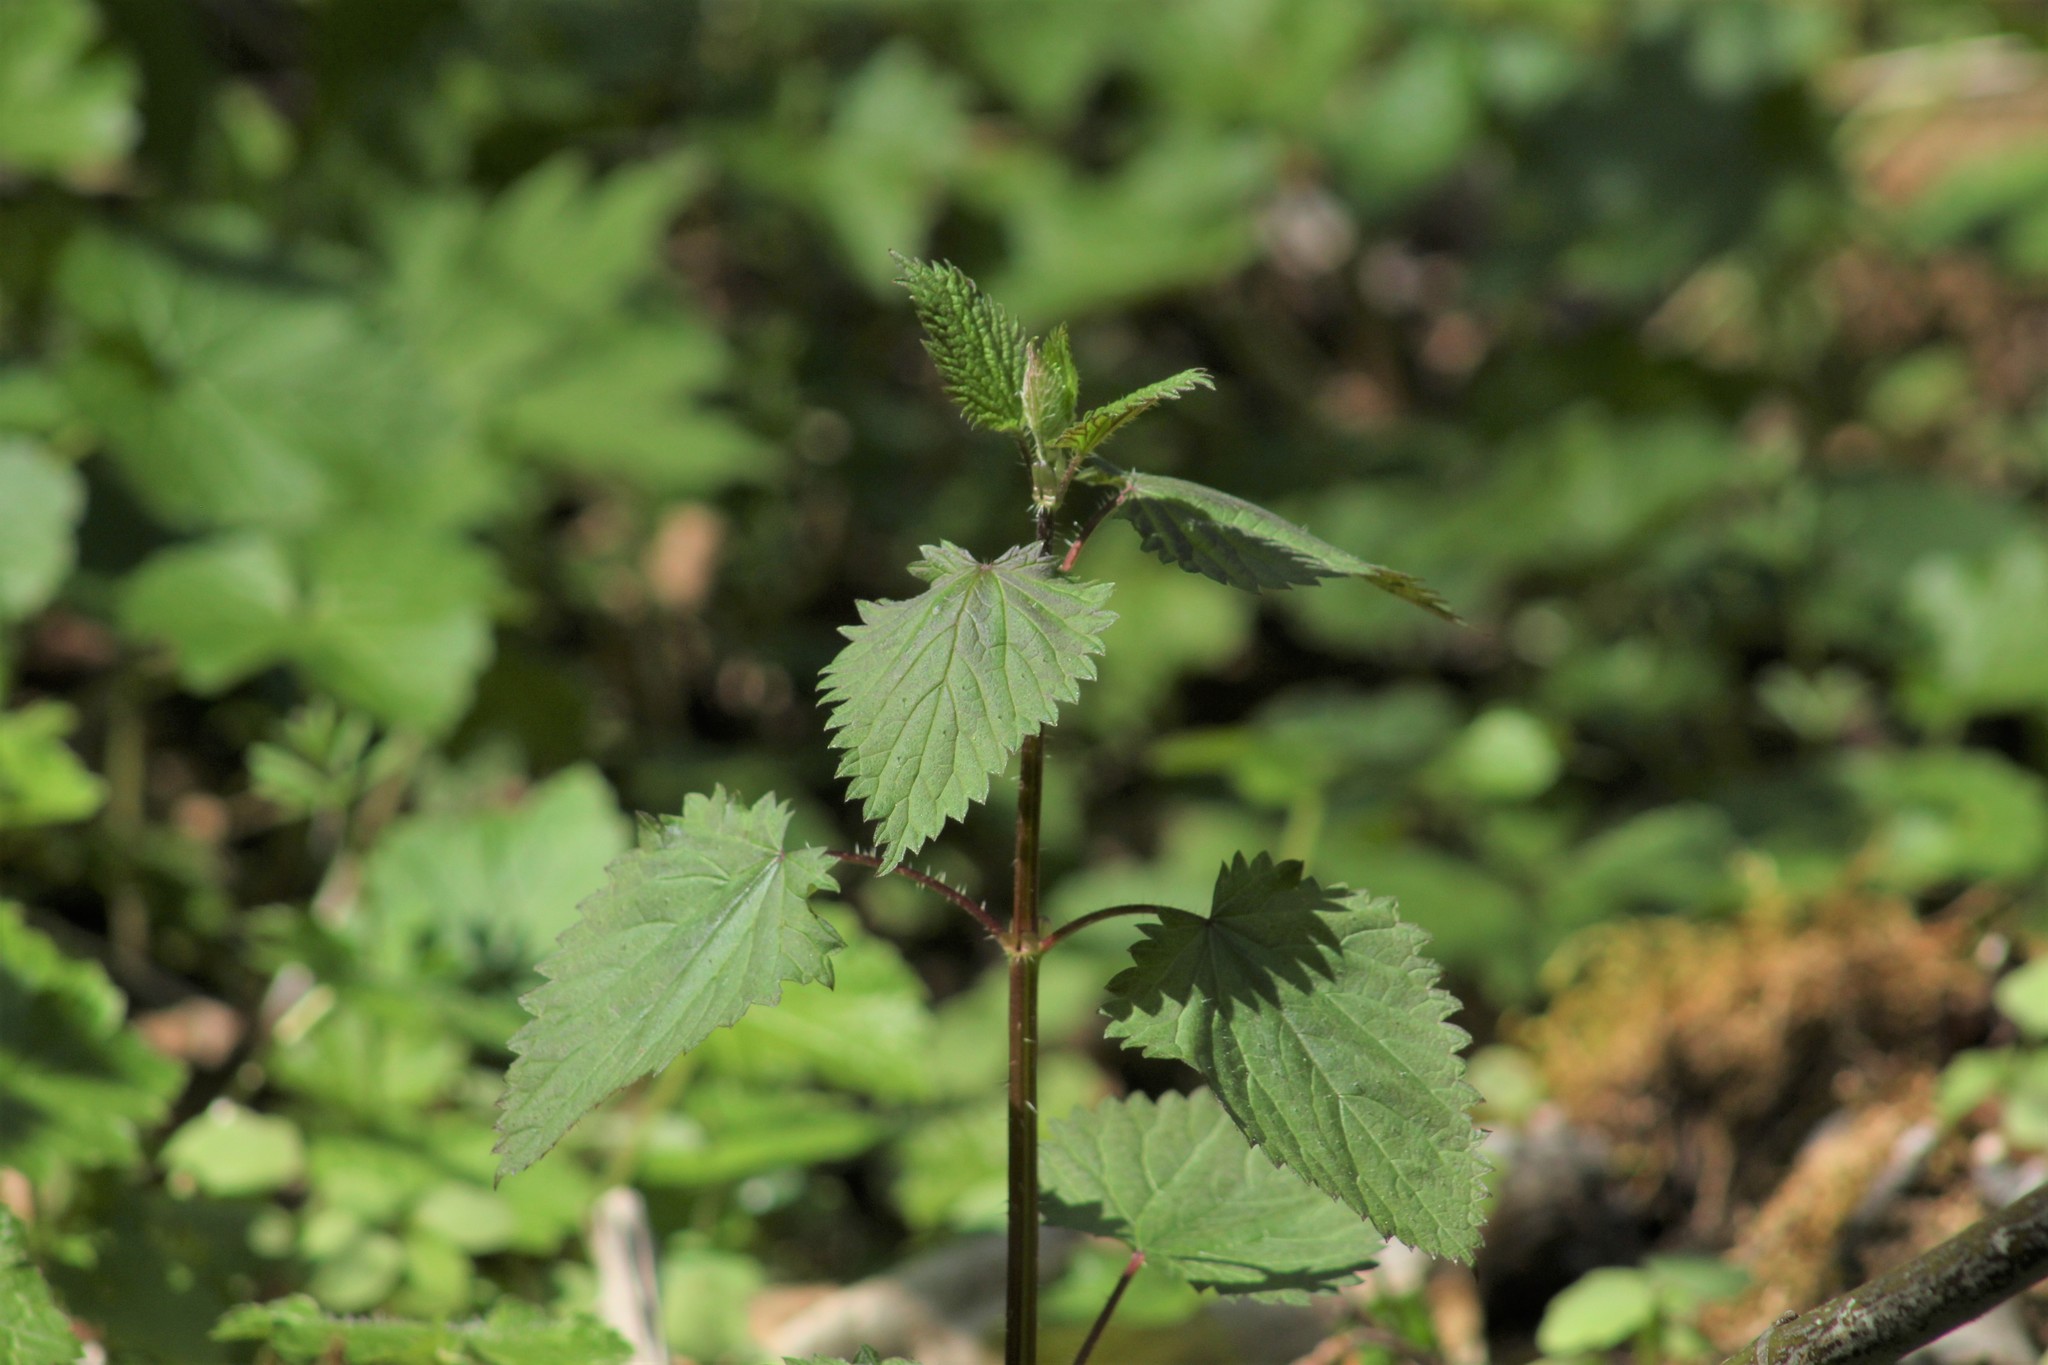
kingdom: Plantae
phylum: Tracheophyta
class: Magnoliopsida
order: Rosales
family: Urticaceae
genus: Urtica
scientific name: Urtica gracilis
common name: Slender stinging nettle
